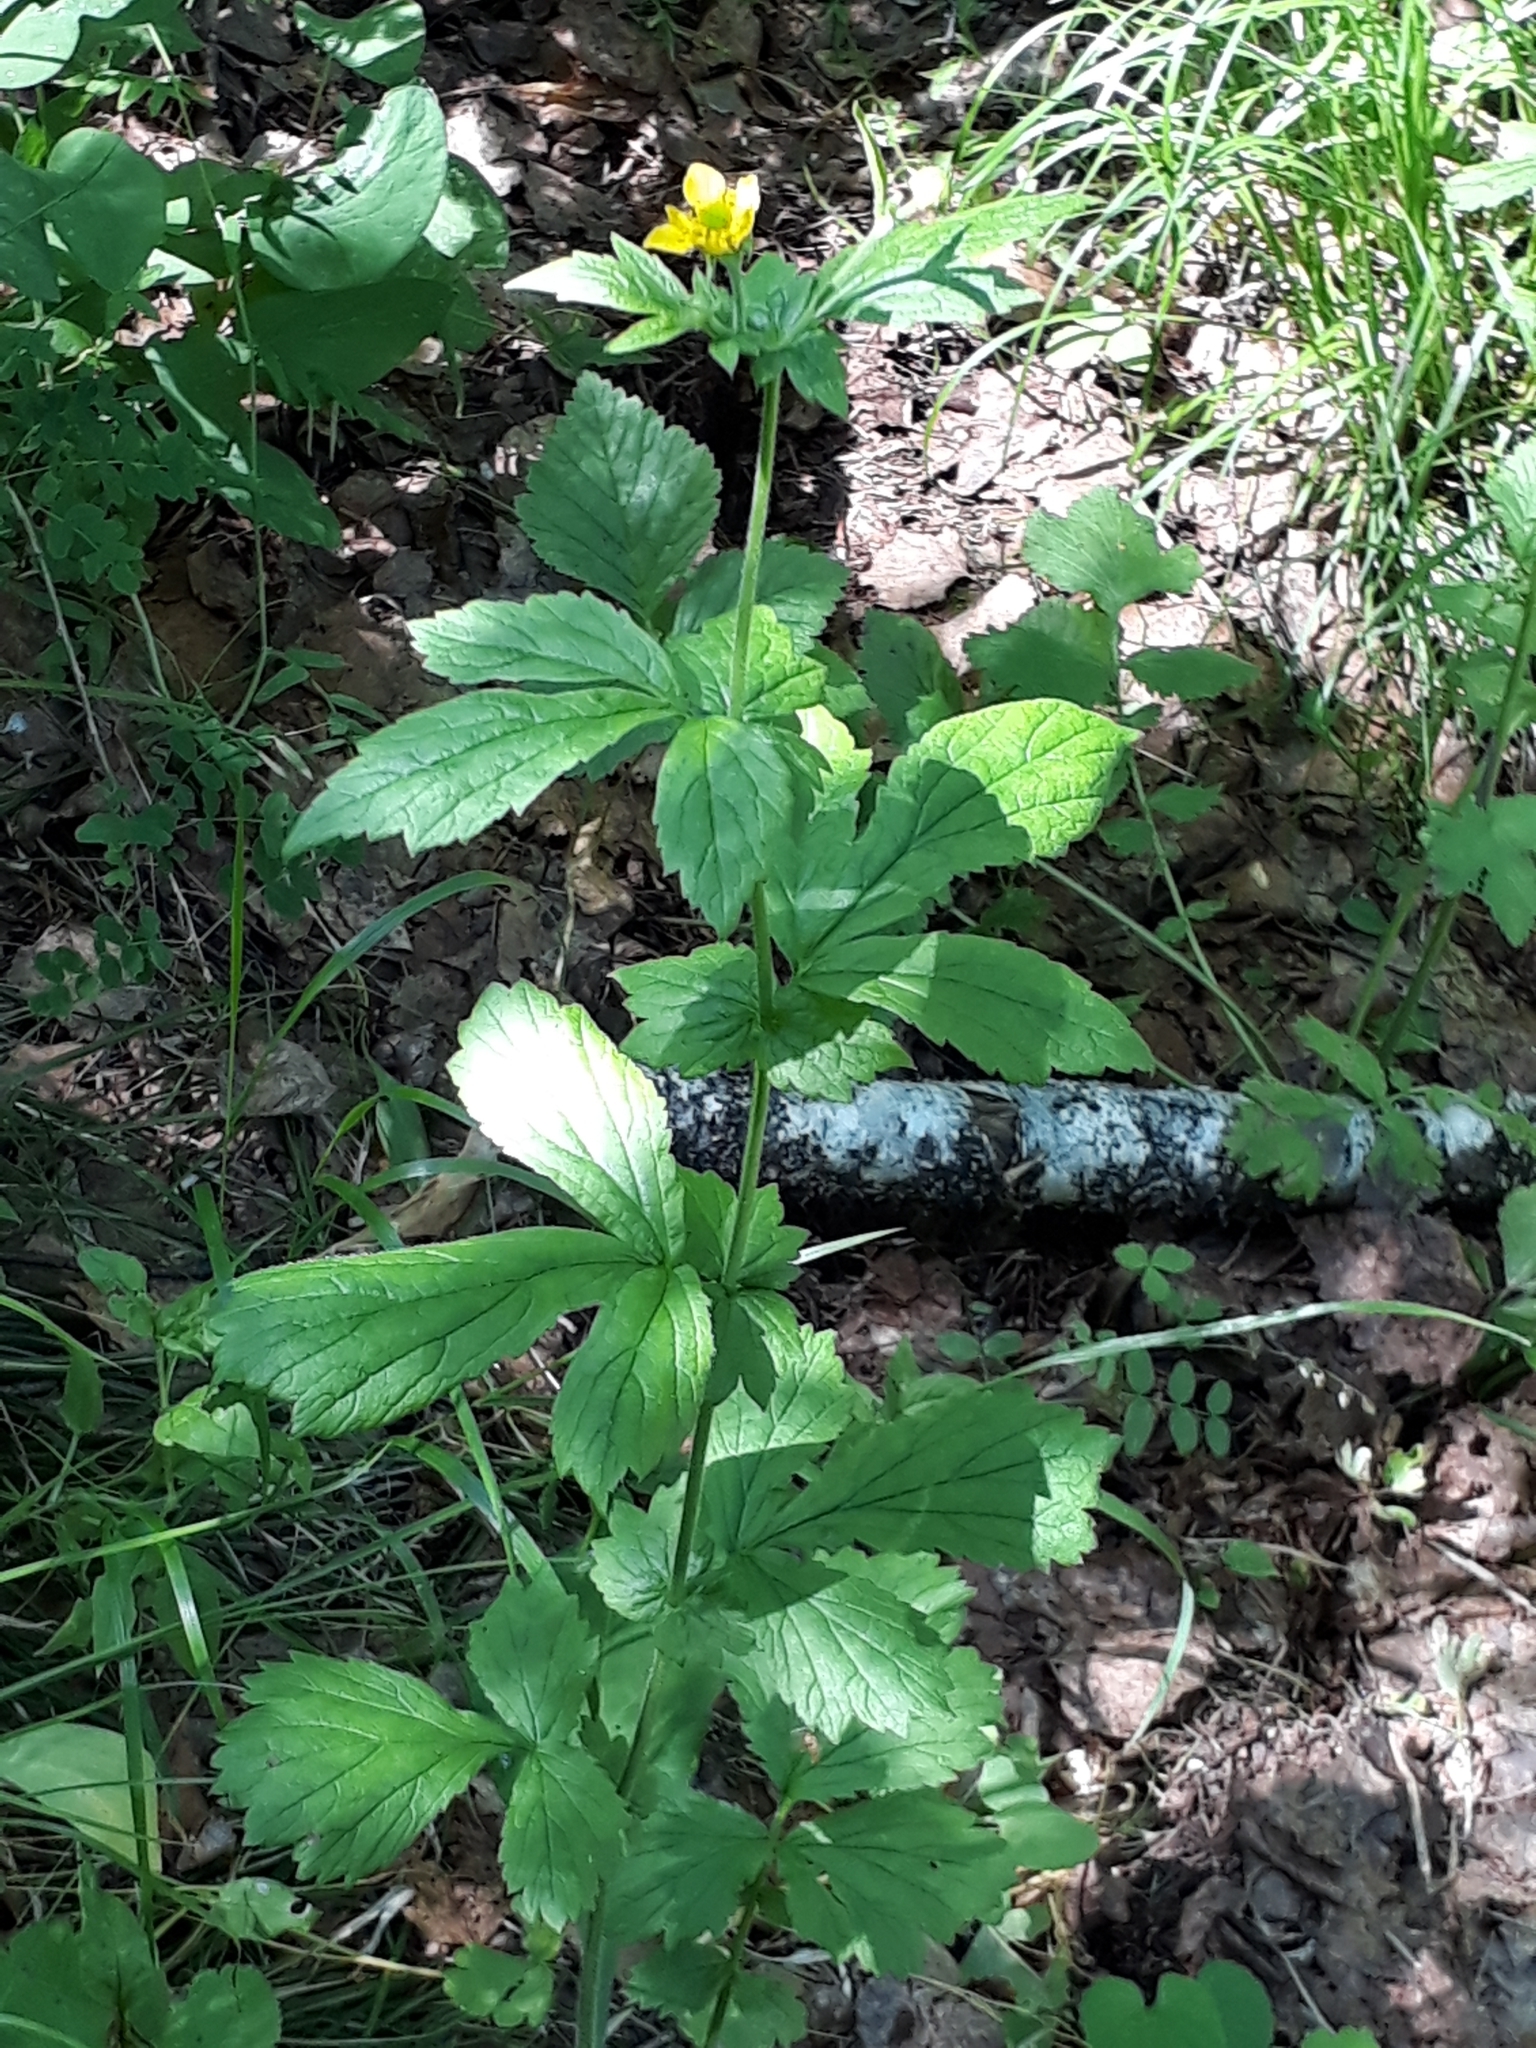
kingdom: Plantae
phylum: Tracheophyta
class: Magnoliopsida
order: Rosales
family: Rosaceae
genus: Geum
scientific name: Geum aleppicum
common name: Yellow avens
